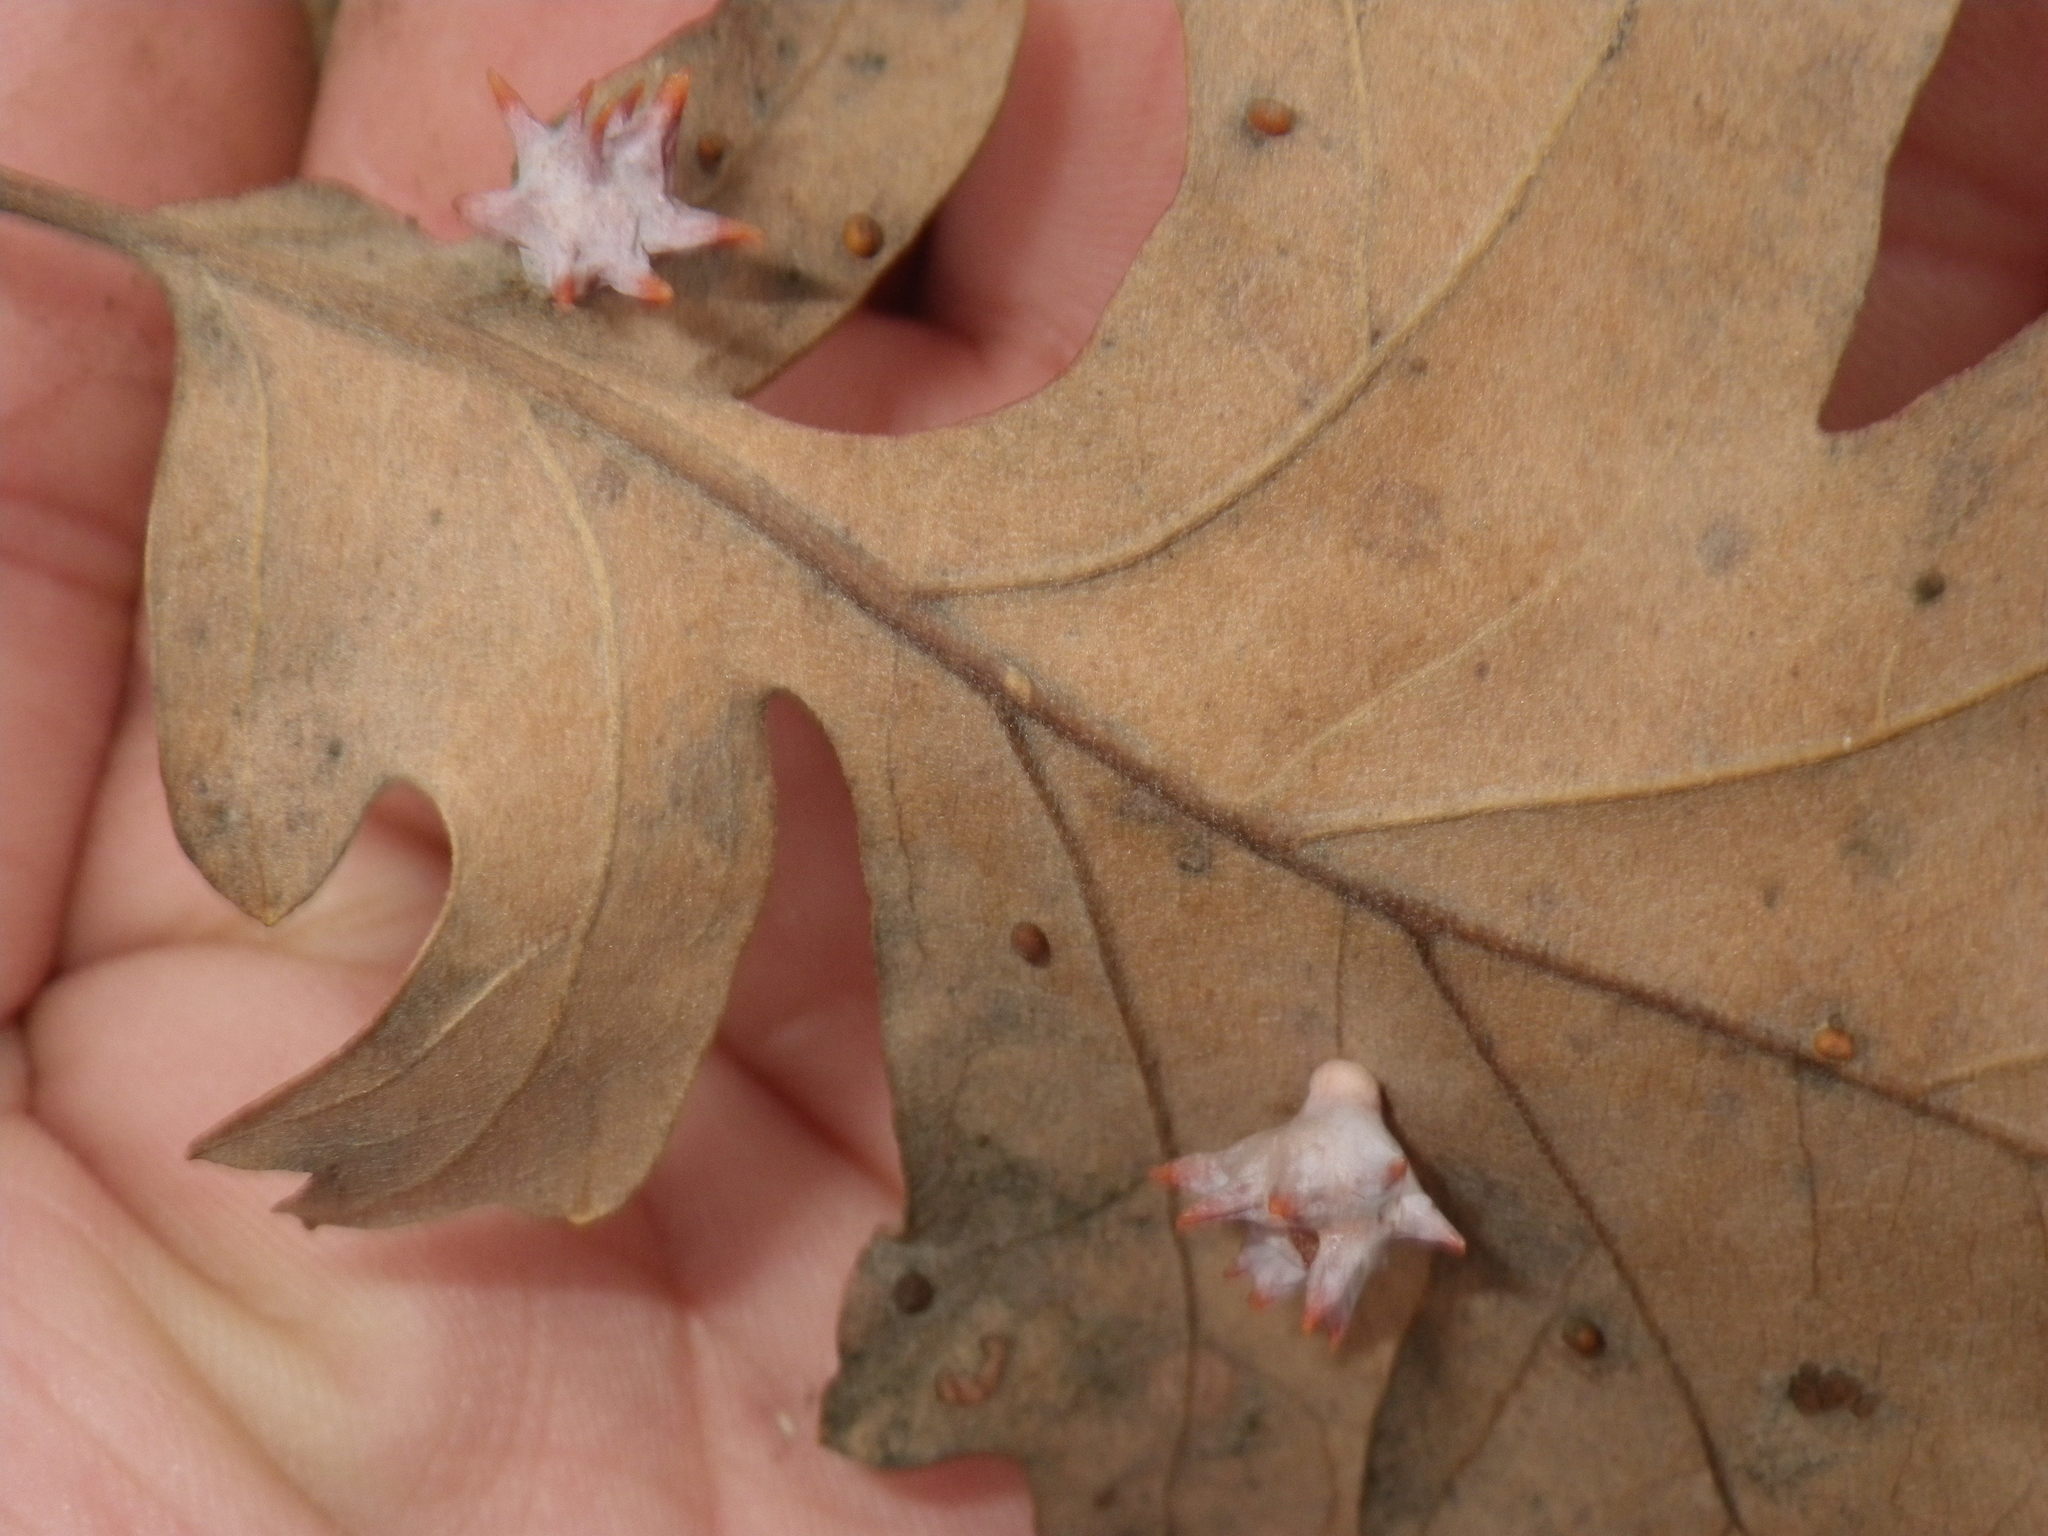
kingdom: Animalia
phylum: Arthropoda
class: Insecta
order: Hymenoptera
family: Cynipidae
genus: Cynips
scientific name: Cynips douglasi
